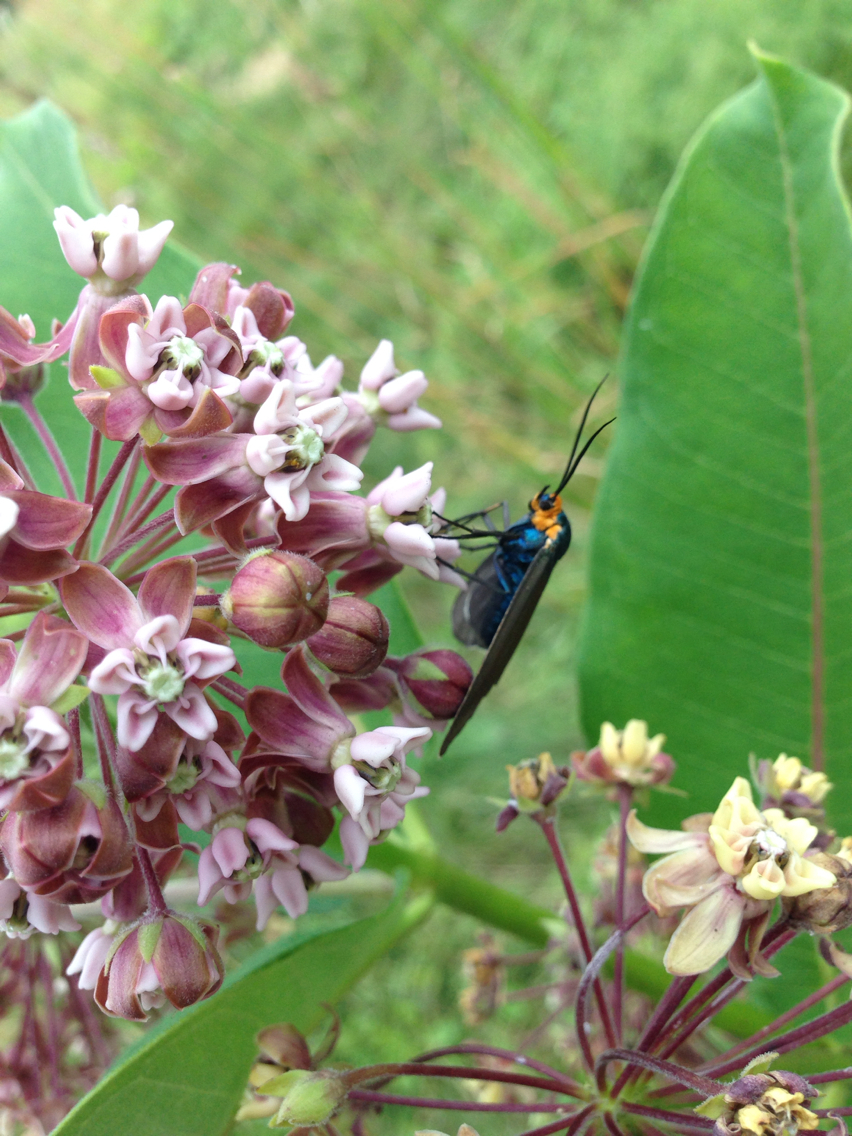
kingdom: Animalia
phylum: Arthropoda
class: Insecta
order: Lepidoptera
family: Erebidae
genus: Ctenucha
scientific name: Ctenucha virginica
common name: Virginia ctenucha moth
